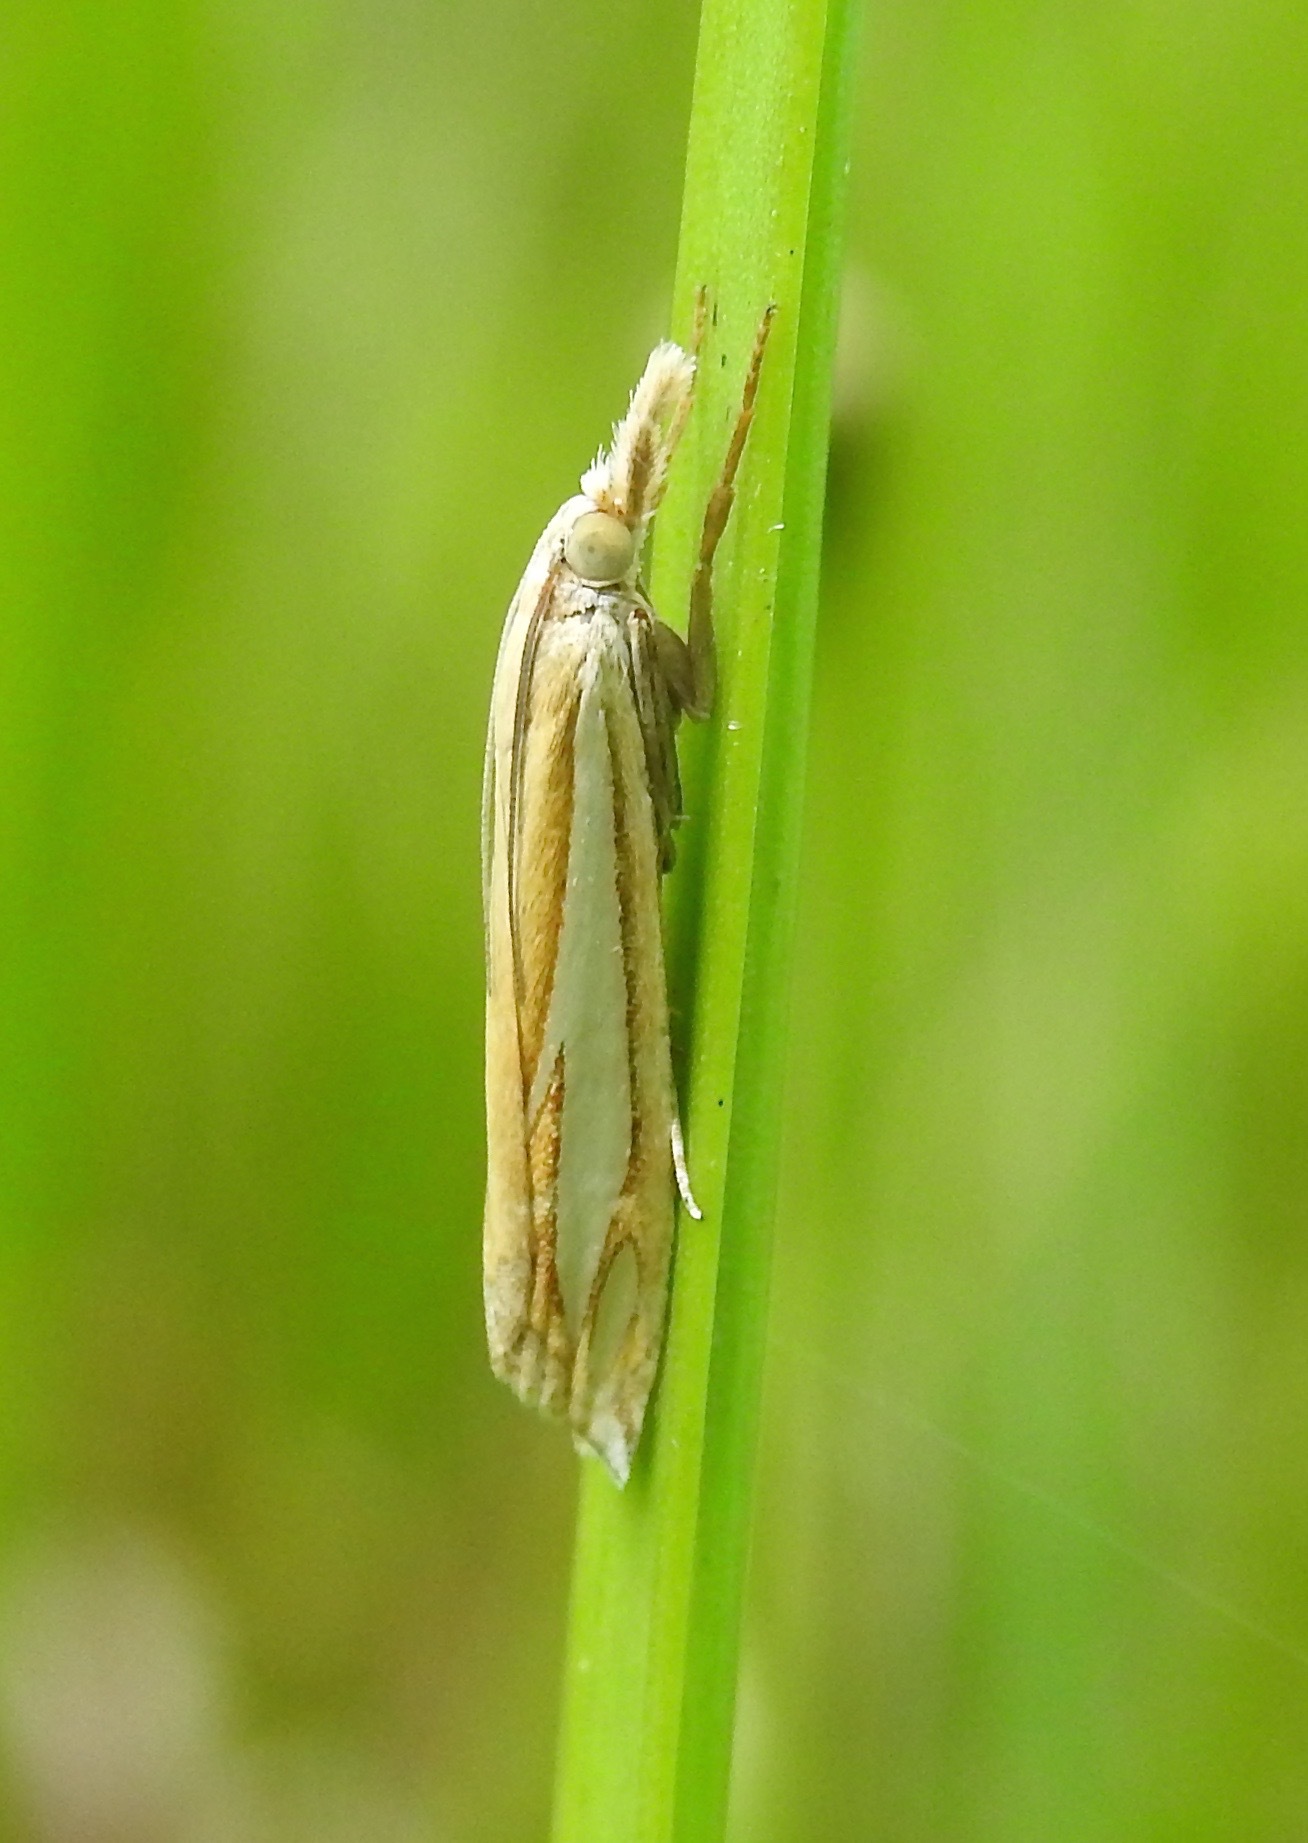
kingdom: Animalia
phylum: Arthropoda
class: Insecta
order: Lepidoptera
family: Crambidae
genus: Crambus
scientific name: Crambus satrapellus
